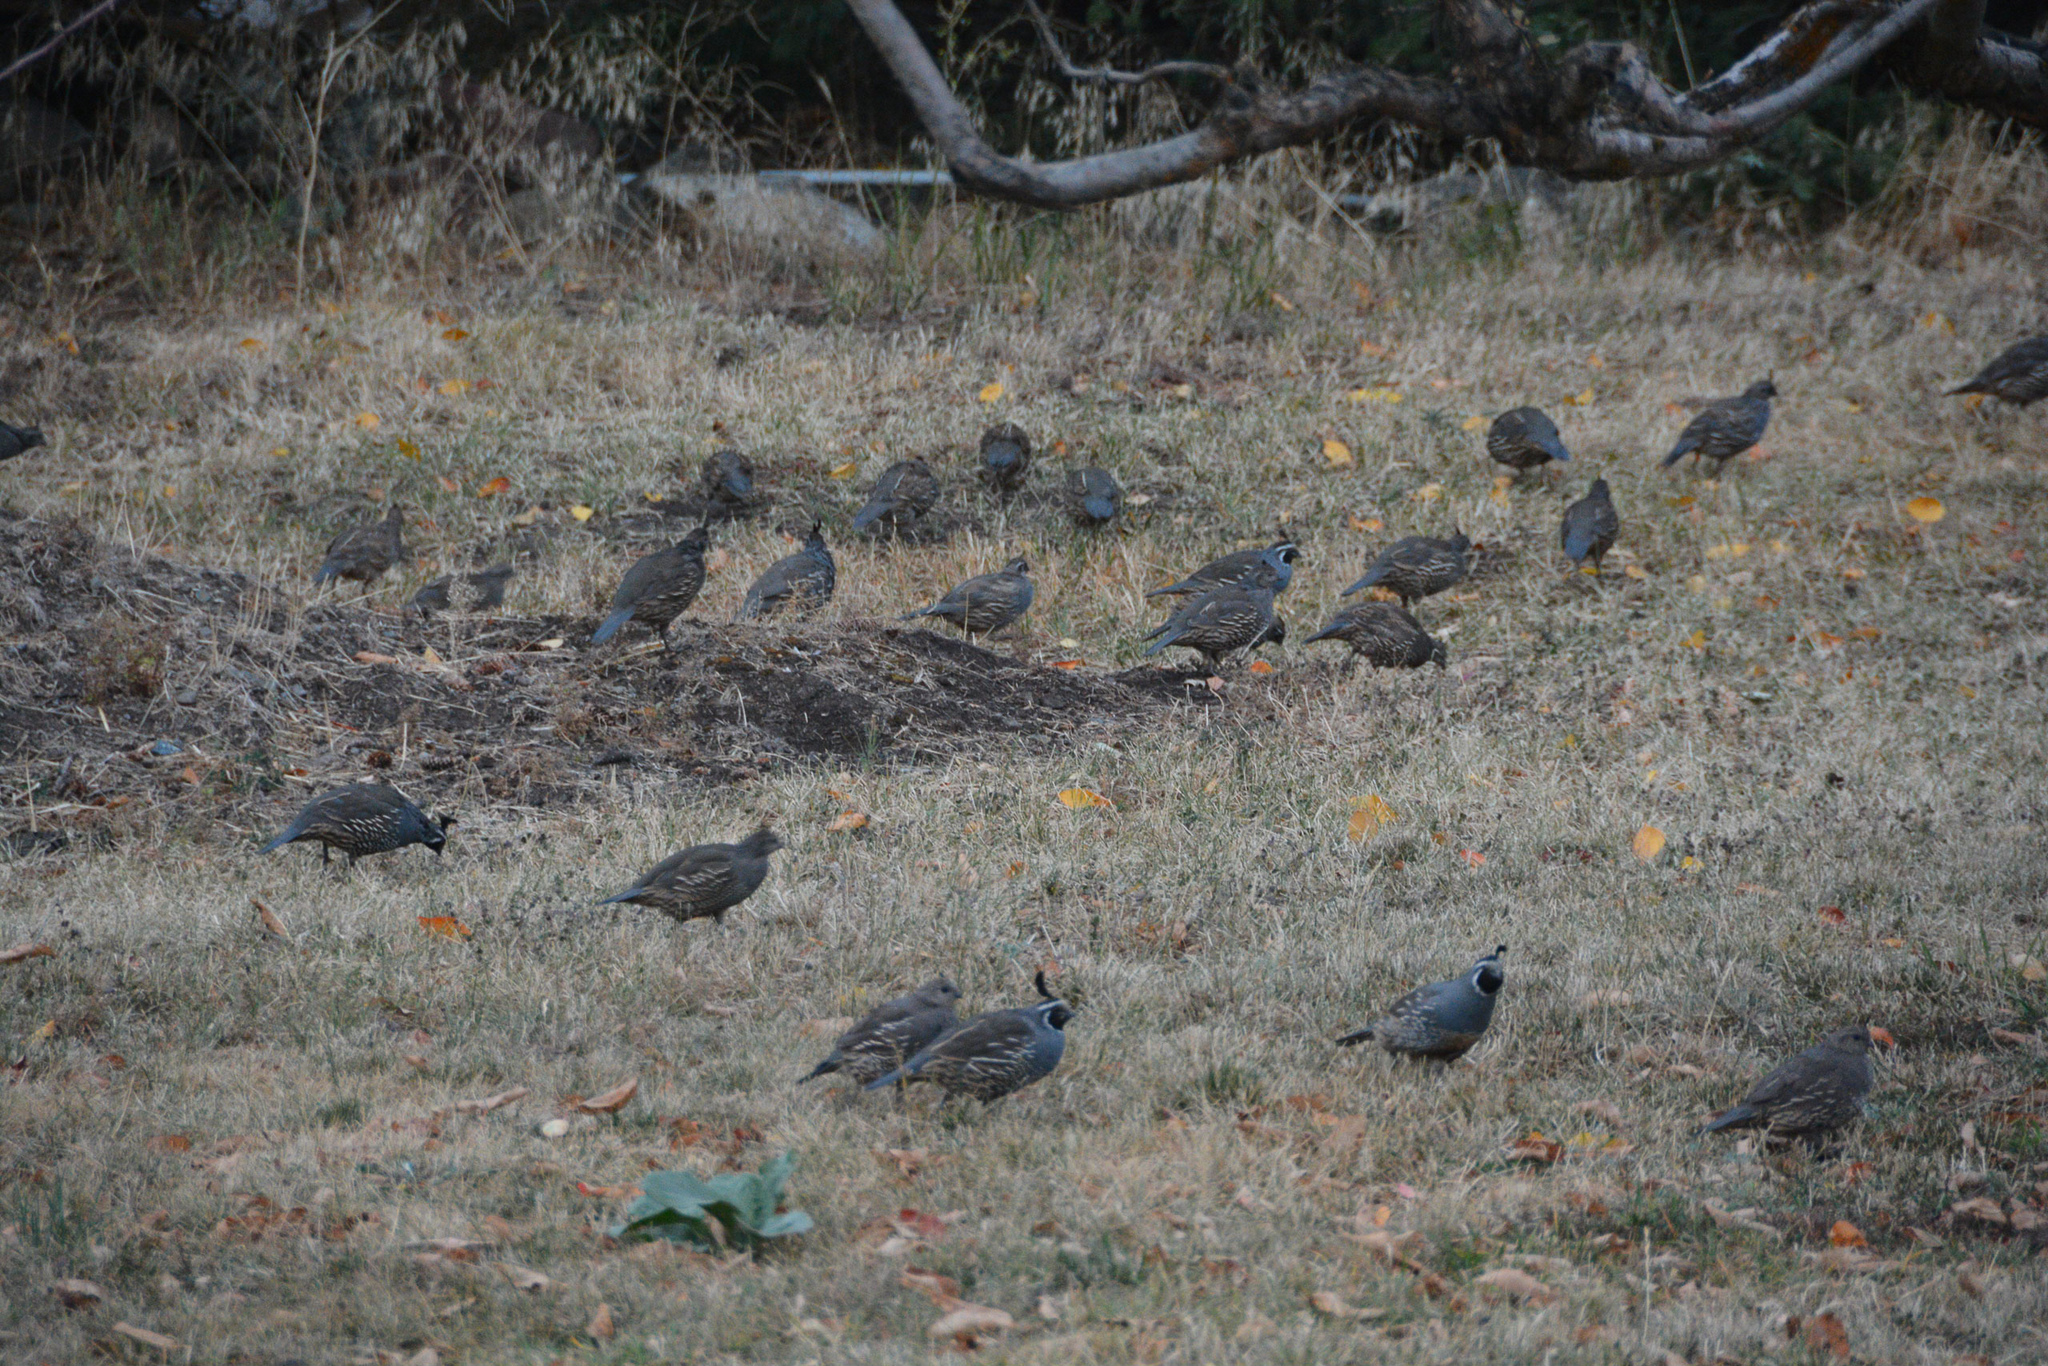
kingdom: Animalia
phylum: Chordata
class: Aves
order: Galliformes
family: Odontophoridae
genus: Callipepla
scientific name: Callipepla californica
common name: California quail
